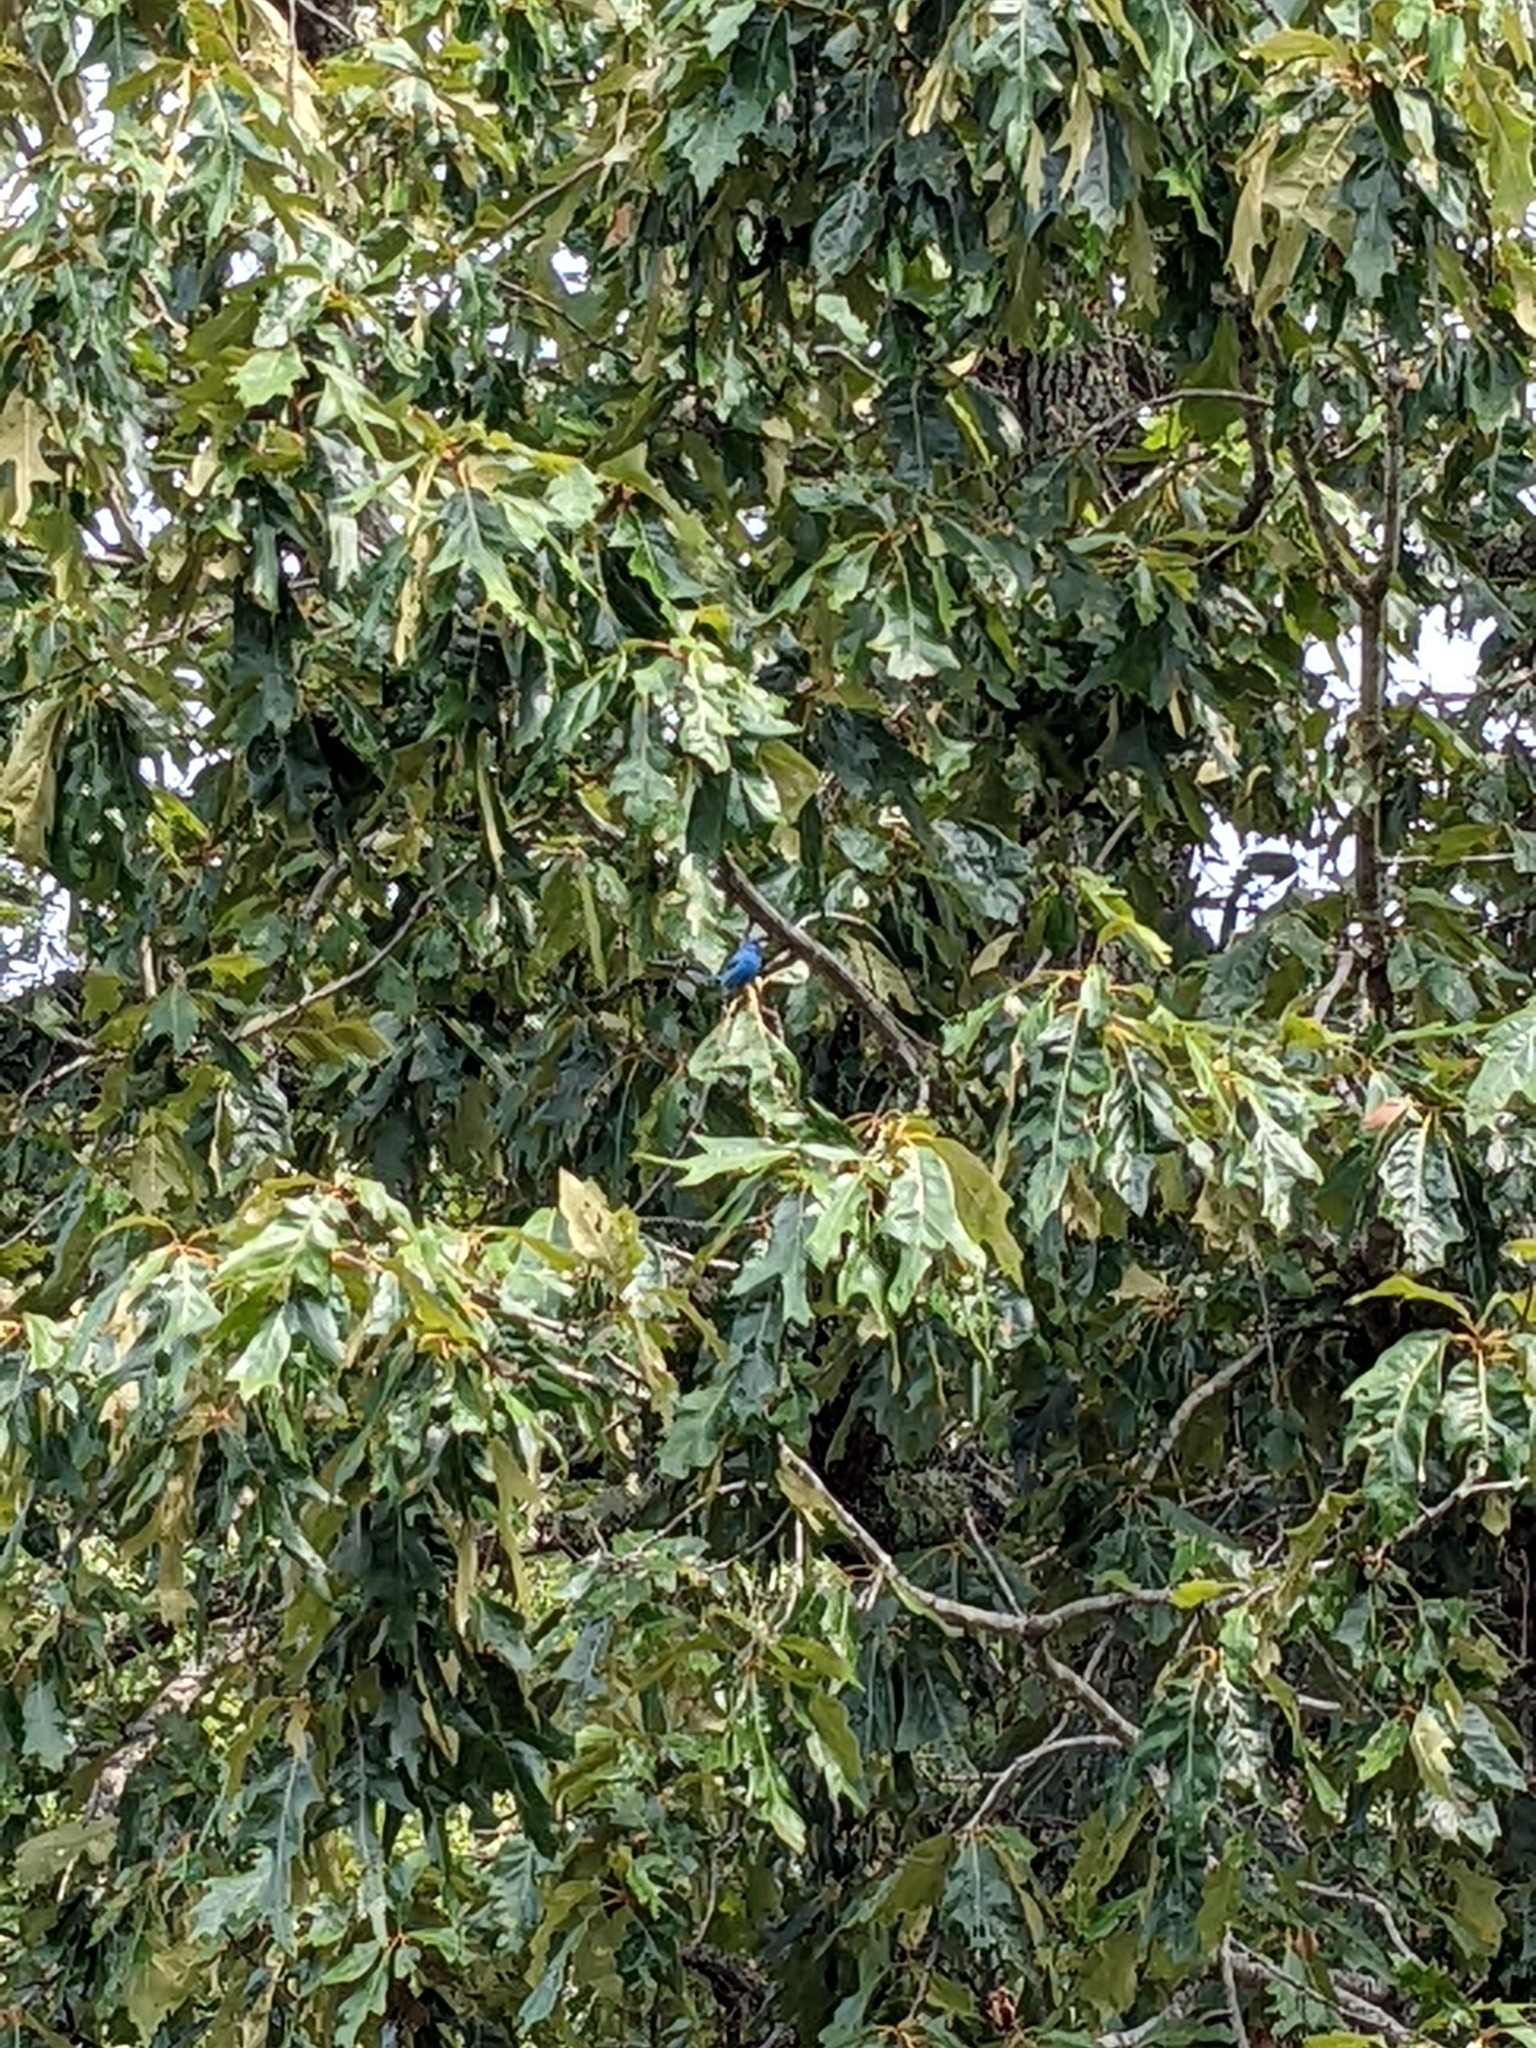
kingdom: Animalia
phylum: Chordata
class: Aves
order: Passeriformes
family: Cardinalidae
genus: Passerina
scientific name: Passerina cyanea
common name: Indigo bunting
